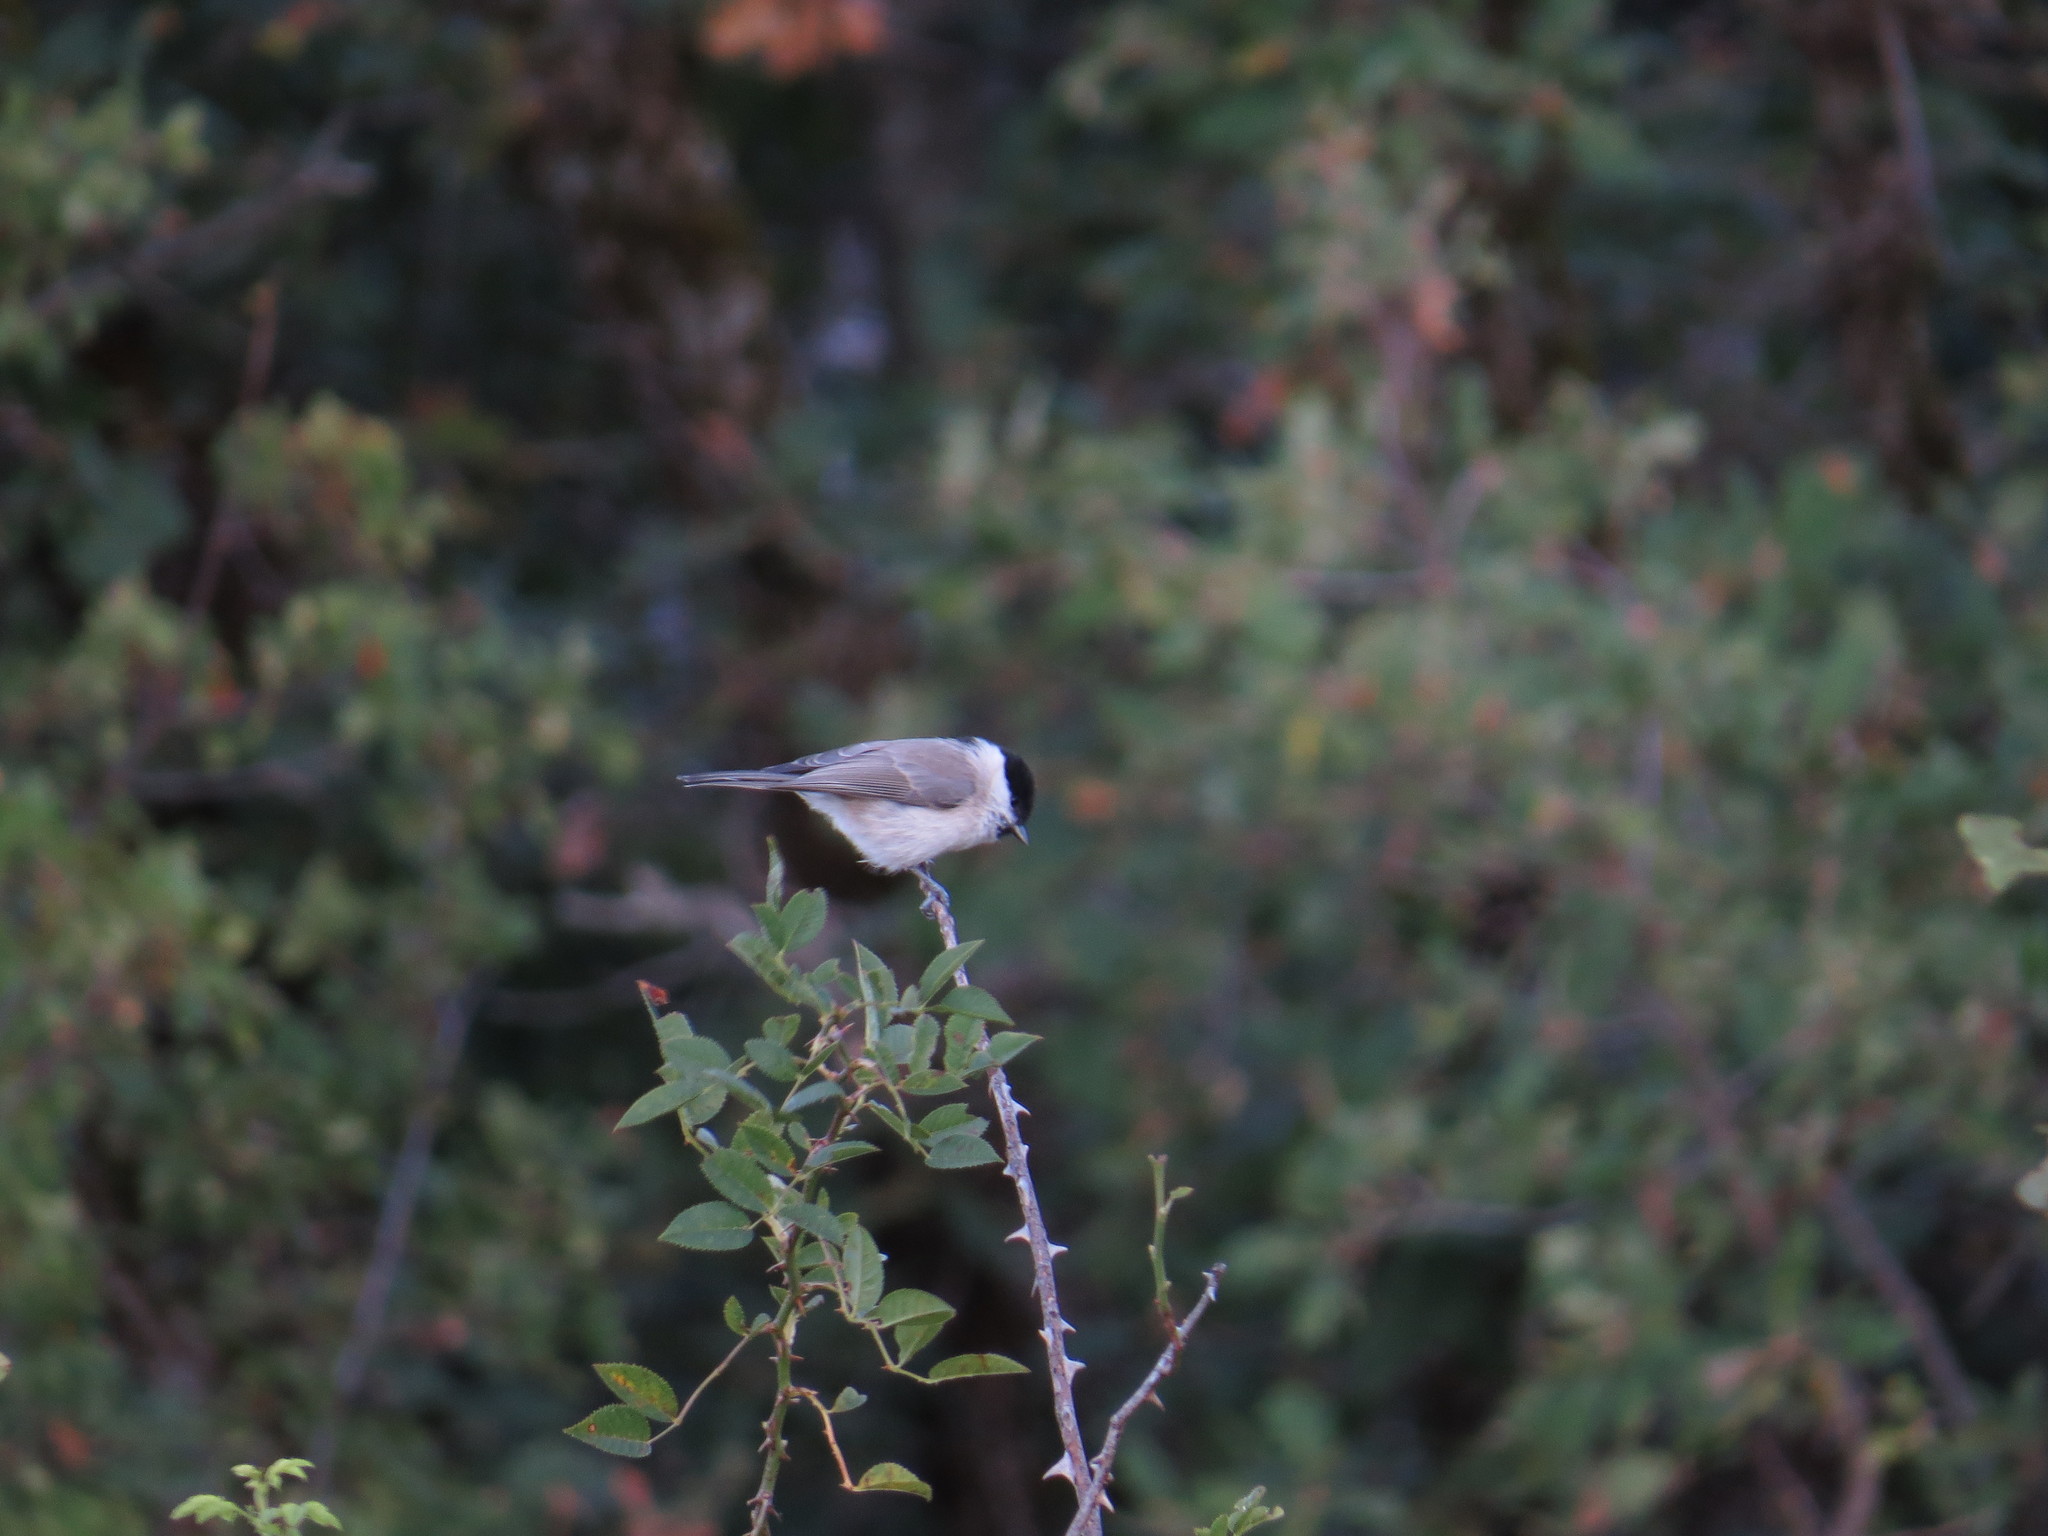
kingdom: Animalia
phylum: Chordata
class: Aves
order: Passeriformes
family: Paridae
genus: Poecile
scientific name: Poecile palustris
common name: Marsh tit
